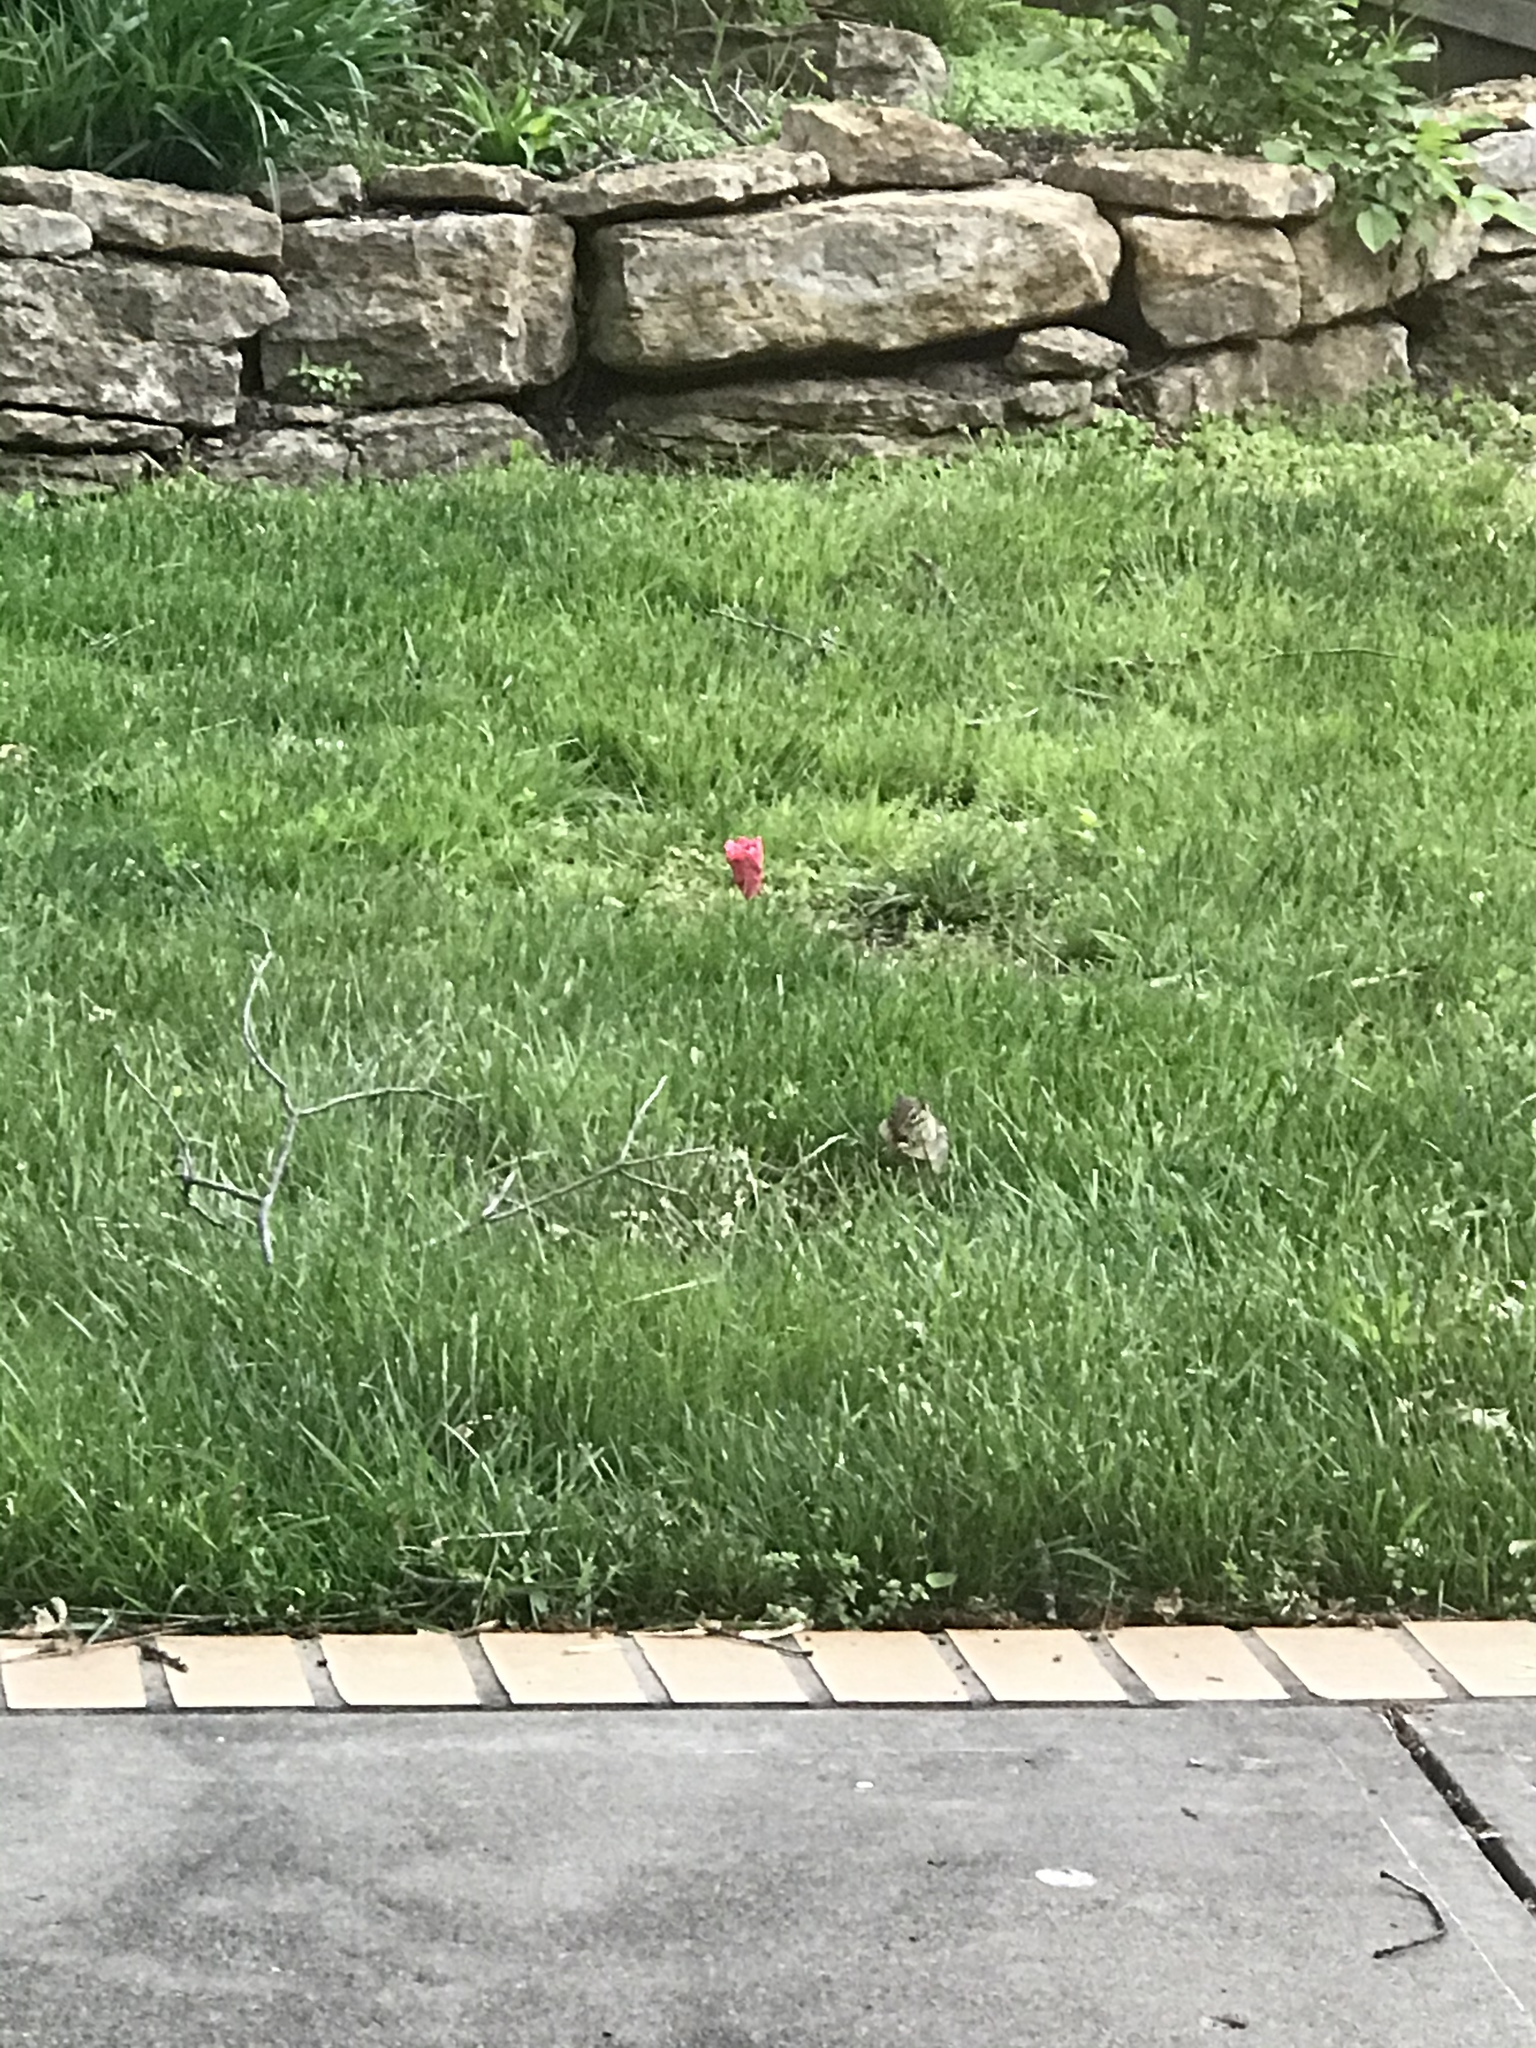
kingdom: Animalia
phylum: Chordata
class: Mammalia
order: Rodentia
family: Sciuridae
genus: Tamias
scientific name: Tamias striatus
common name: Eastern chipmunk
